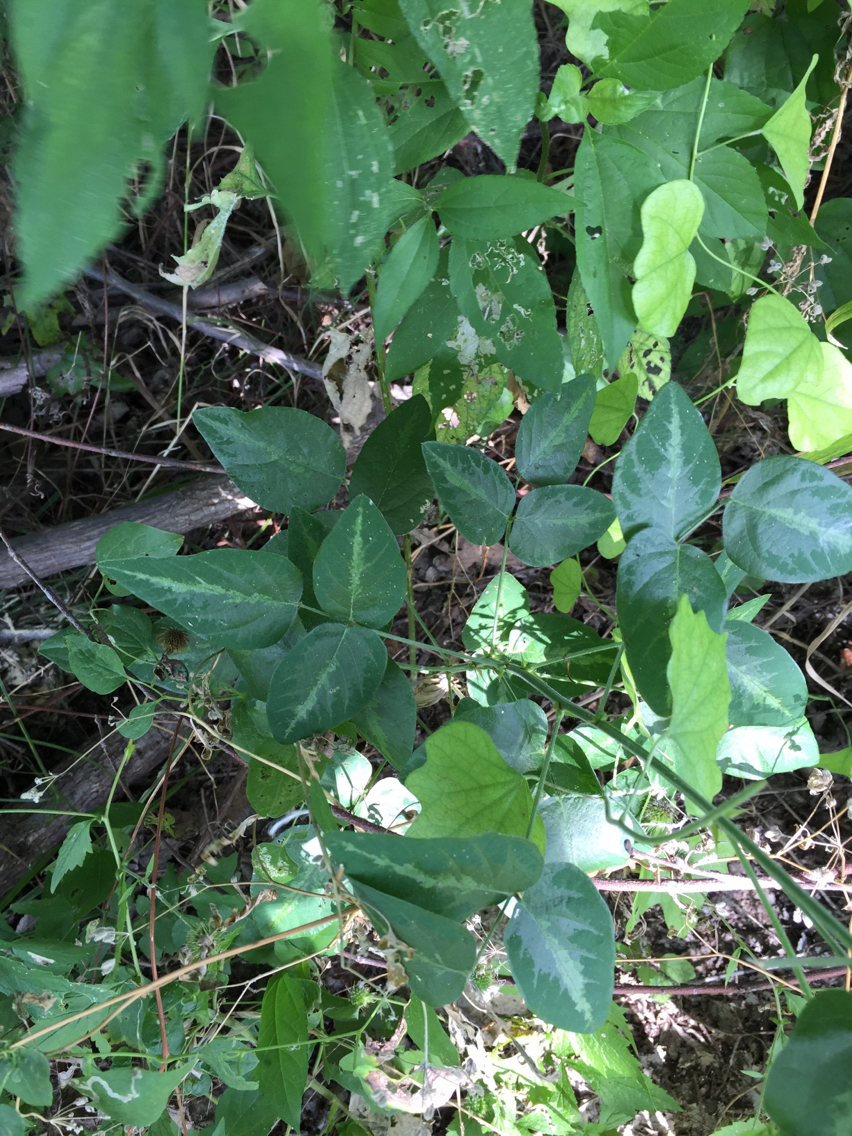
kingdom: Plantae
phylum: Tracheophyta
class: Magnoliopsida
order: Fabales
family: Fabaceae
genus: Desmodium
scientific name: Desmodium tweedyi
